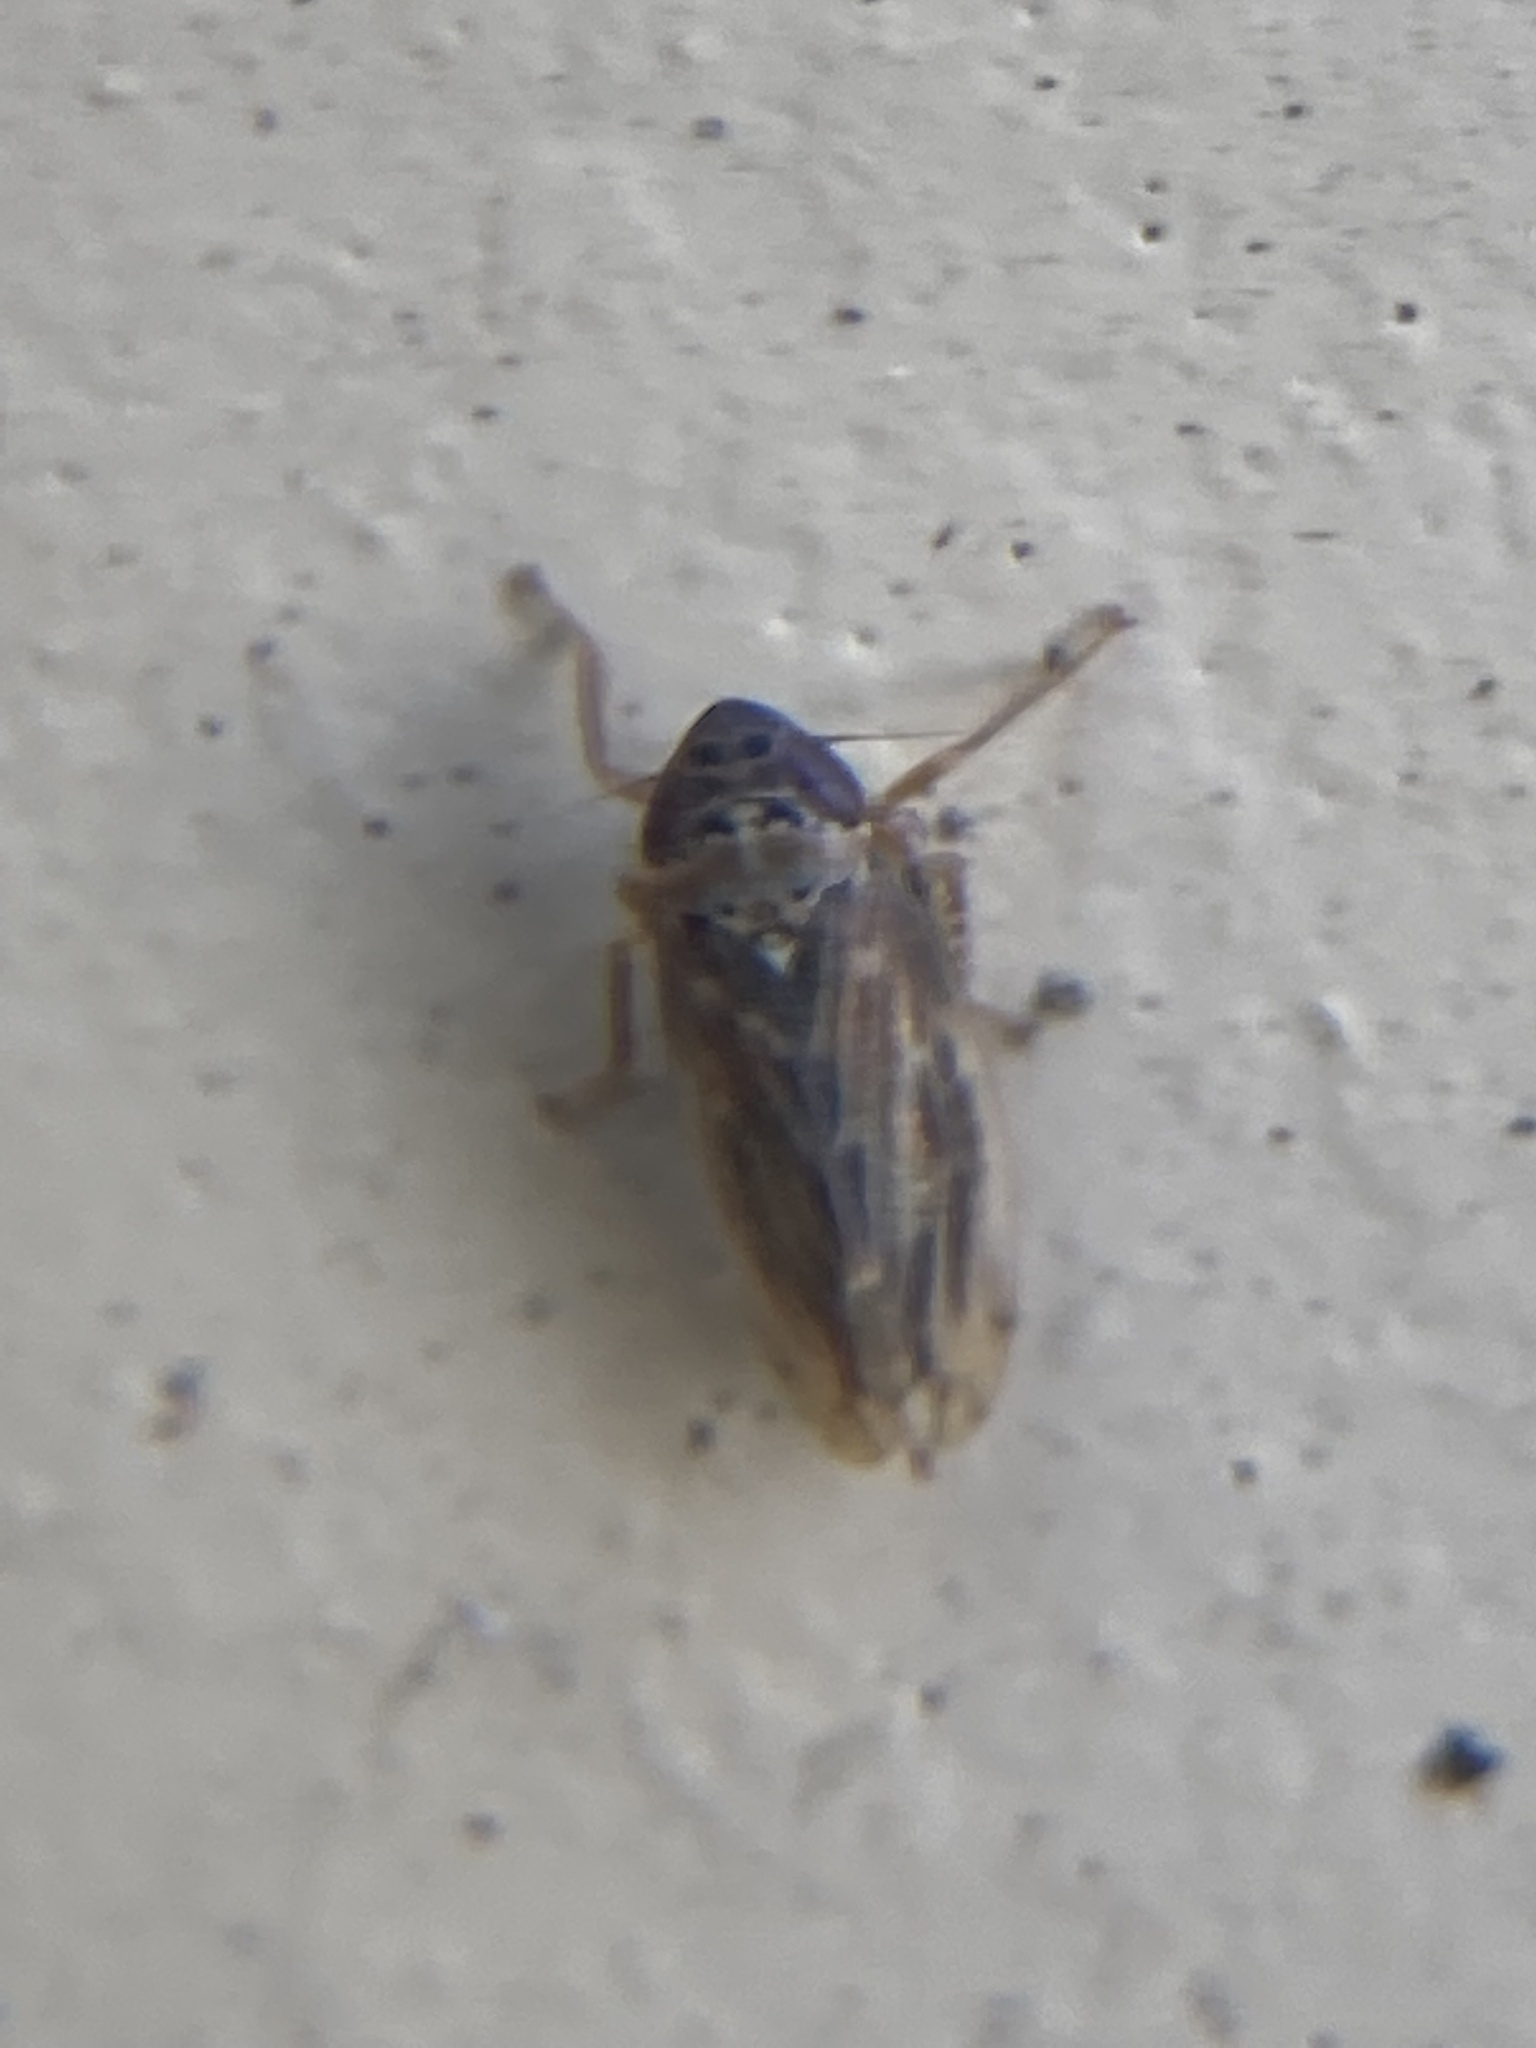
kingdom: Animalia
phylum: Arthropoda
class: Insecta
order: Hemiptera
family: Cicadellidae
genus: Stirellus
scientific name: Stirellus bicolor
